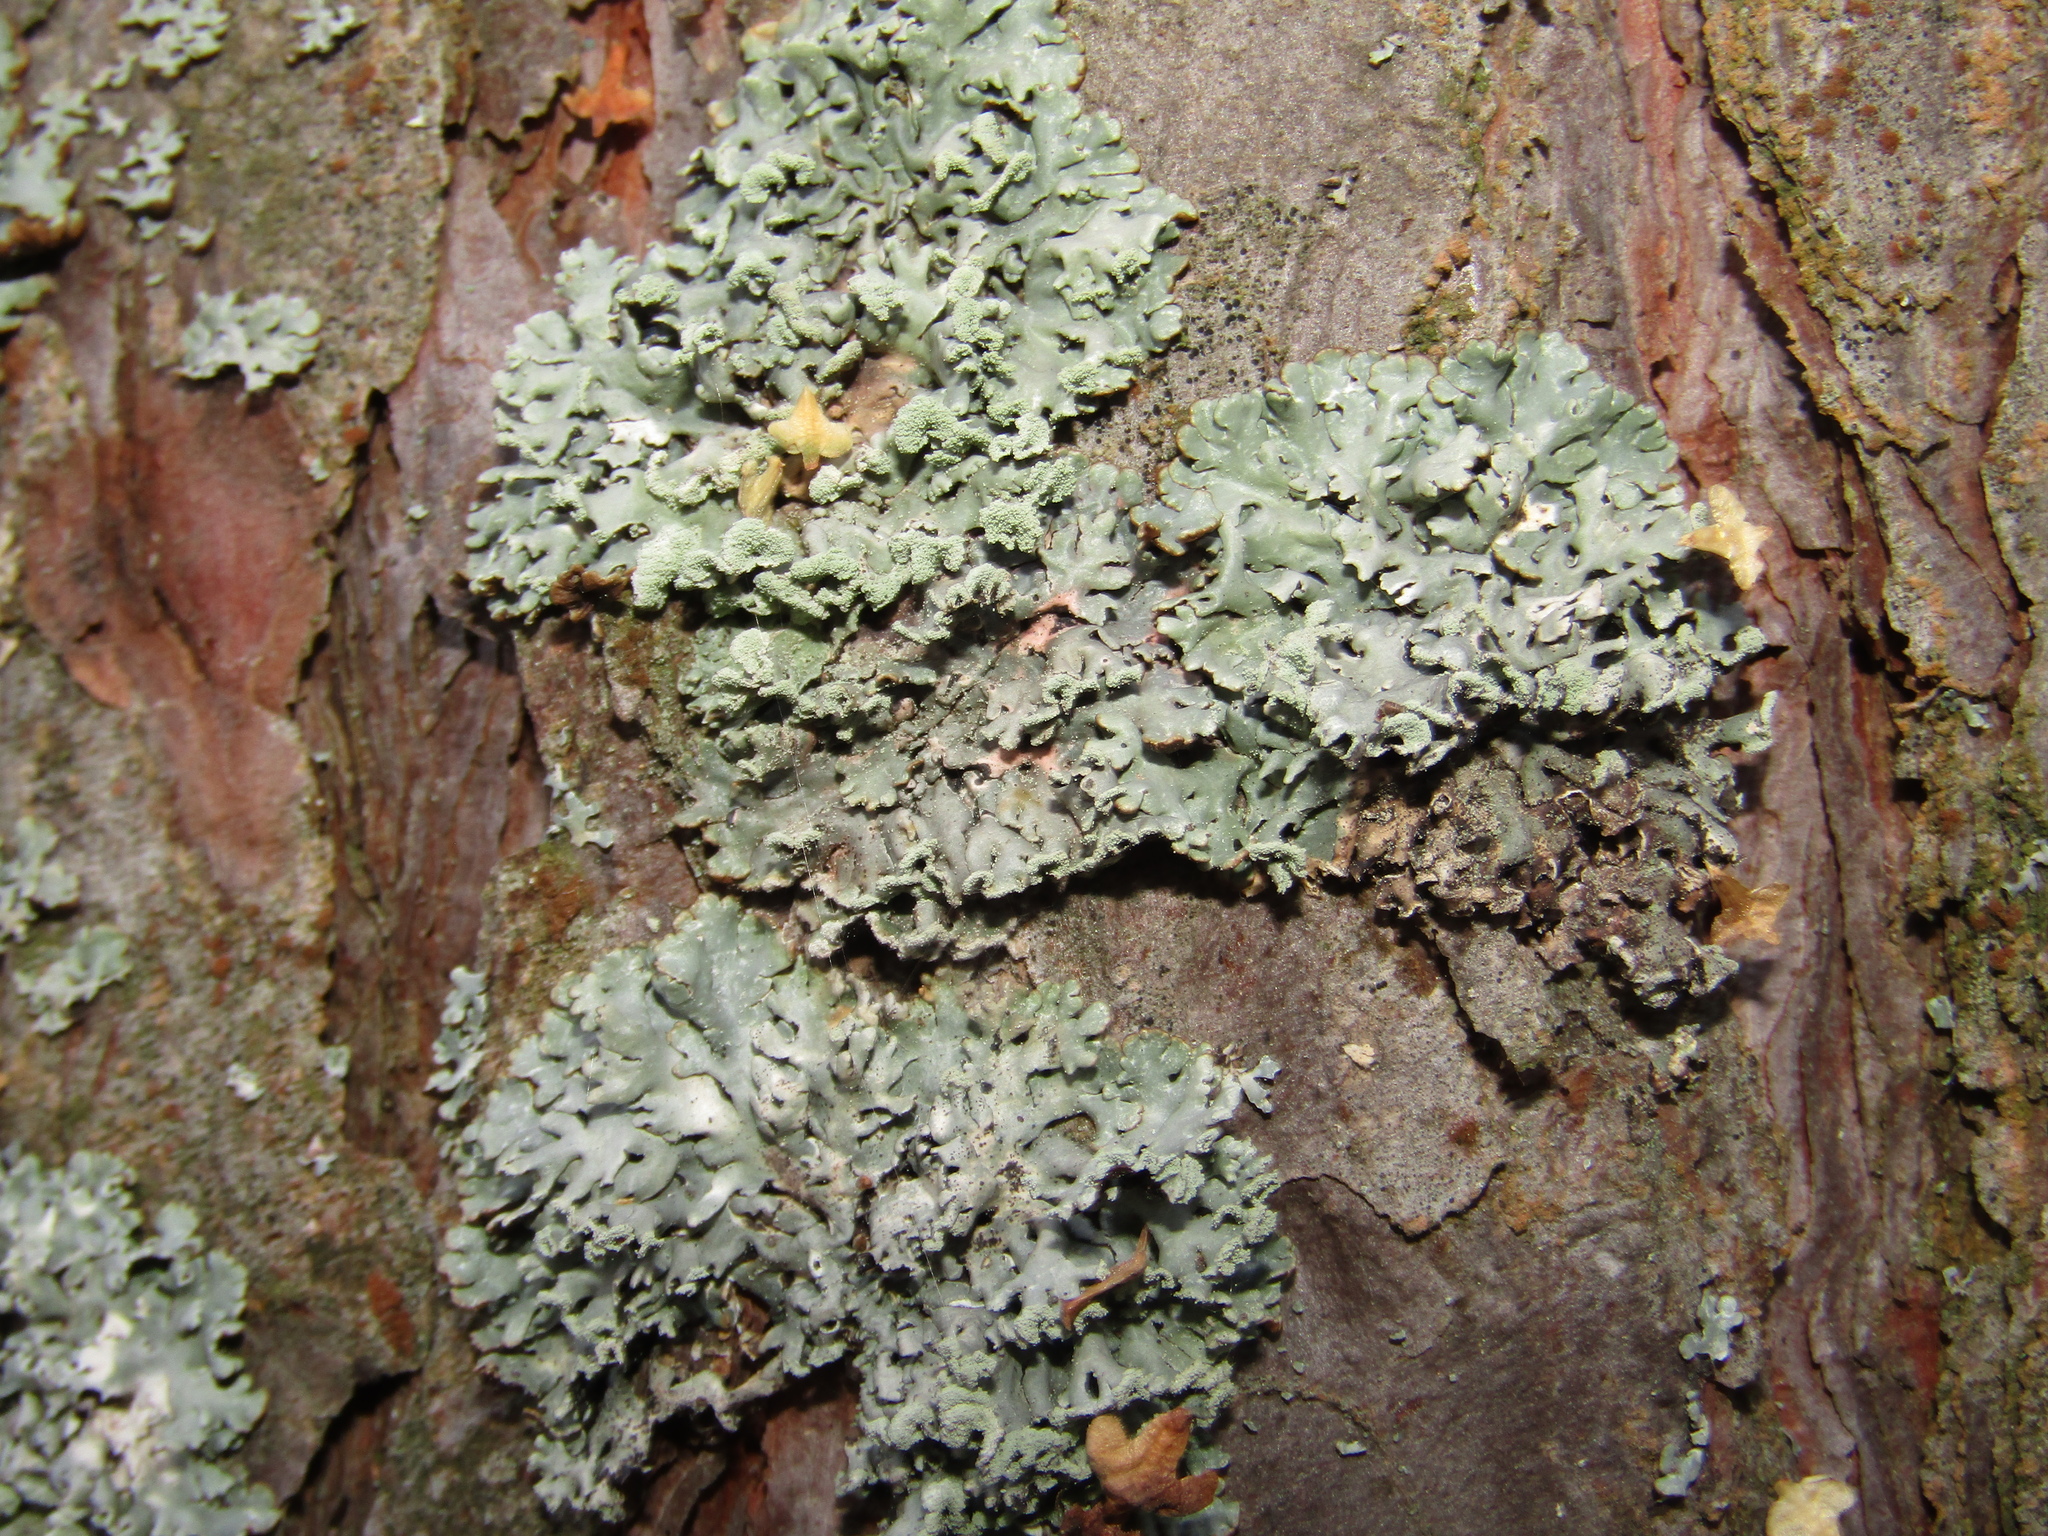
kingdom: Fungi
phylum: Ascomycota
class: Lecanoromycetes
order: Lecanorales
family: Parmeliaceae
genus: Hypogymnia
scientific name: Hypogymnia physodes
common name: Dark crottle
